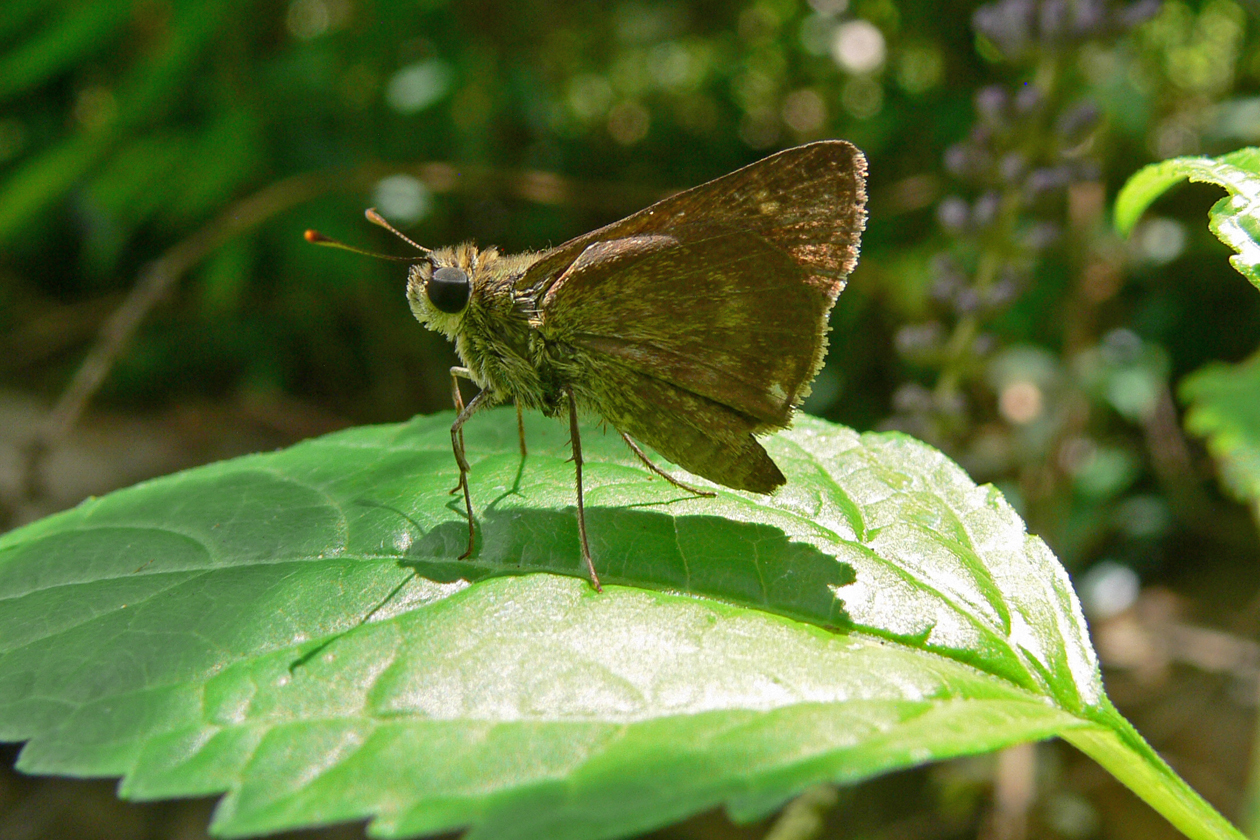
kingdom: Animalia
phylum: Arthropoda
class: Insecta
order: Lepidoptera
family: Hesperiidae
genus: Polites
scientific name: Polites egeremet
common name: Northern broken-dash
